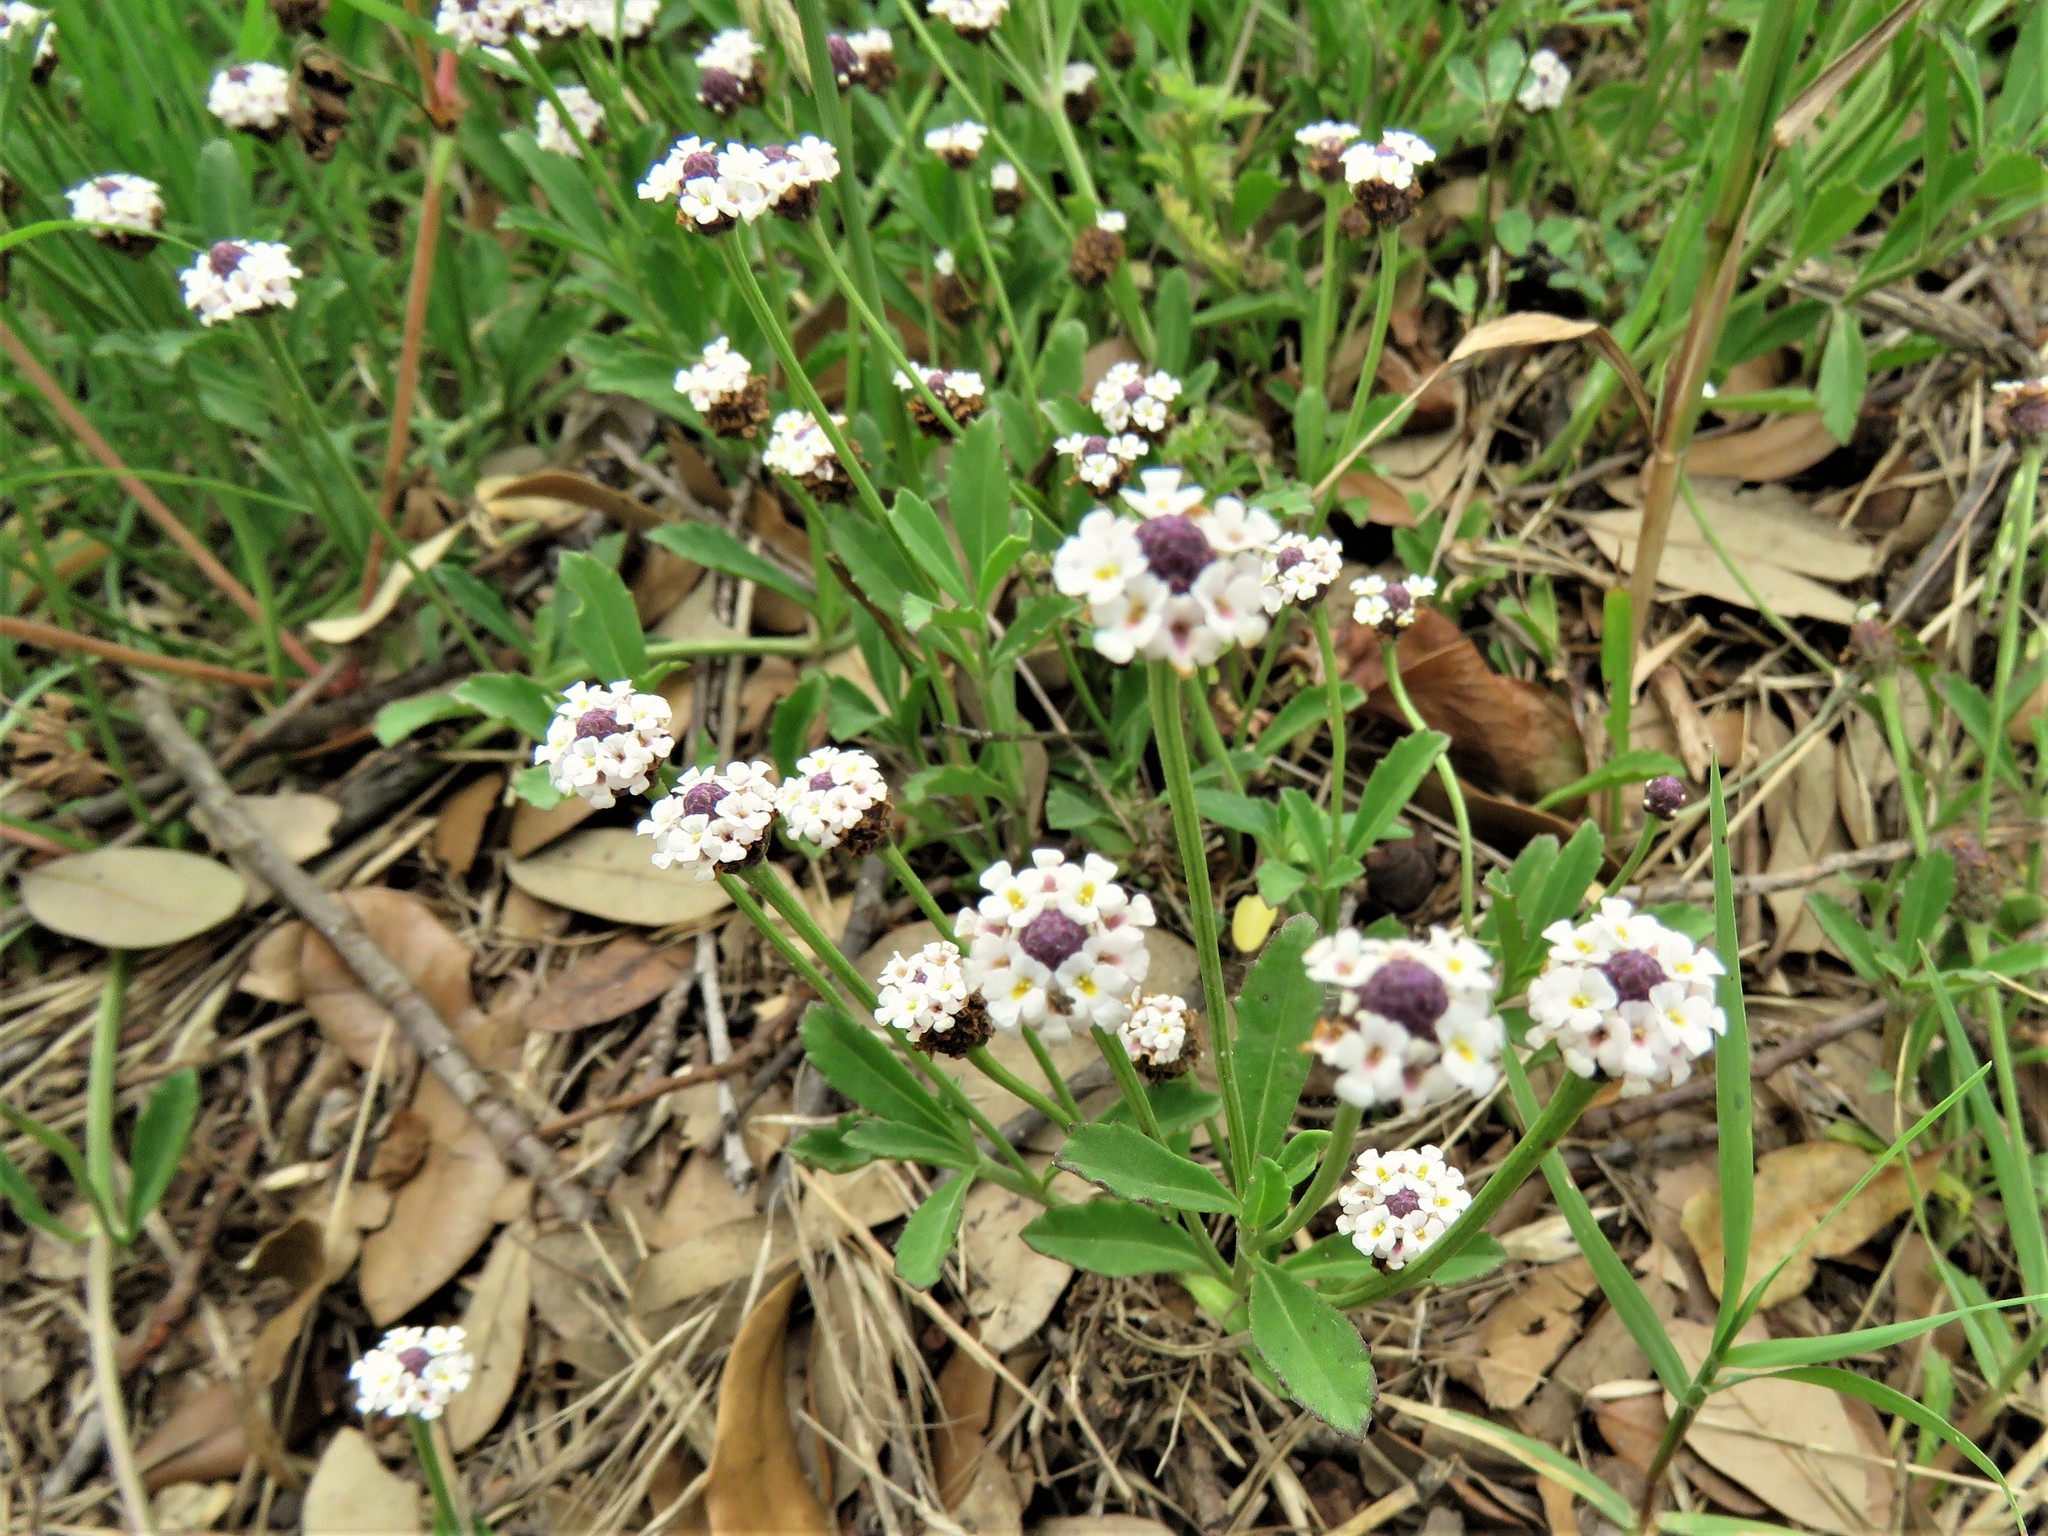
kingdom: Plantae
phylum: Tracheophyta
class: Magnoliopsida
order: Lamiales
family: Verbenaceae
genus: Phyla
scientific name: Phyla nodiflora
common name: Frogfruit
